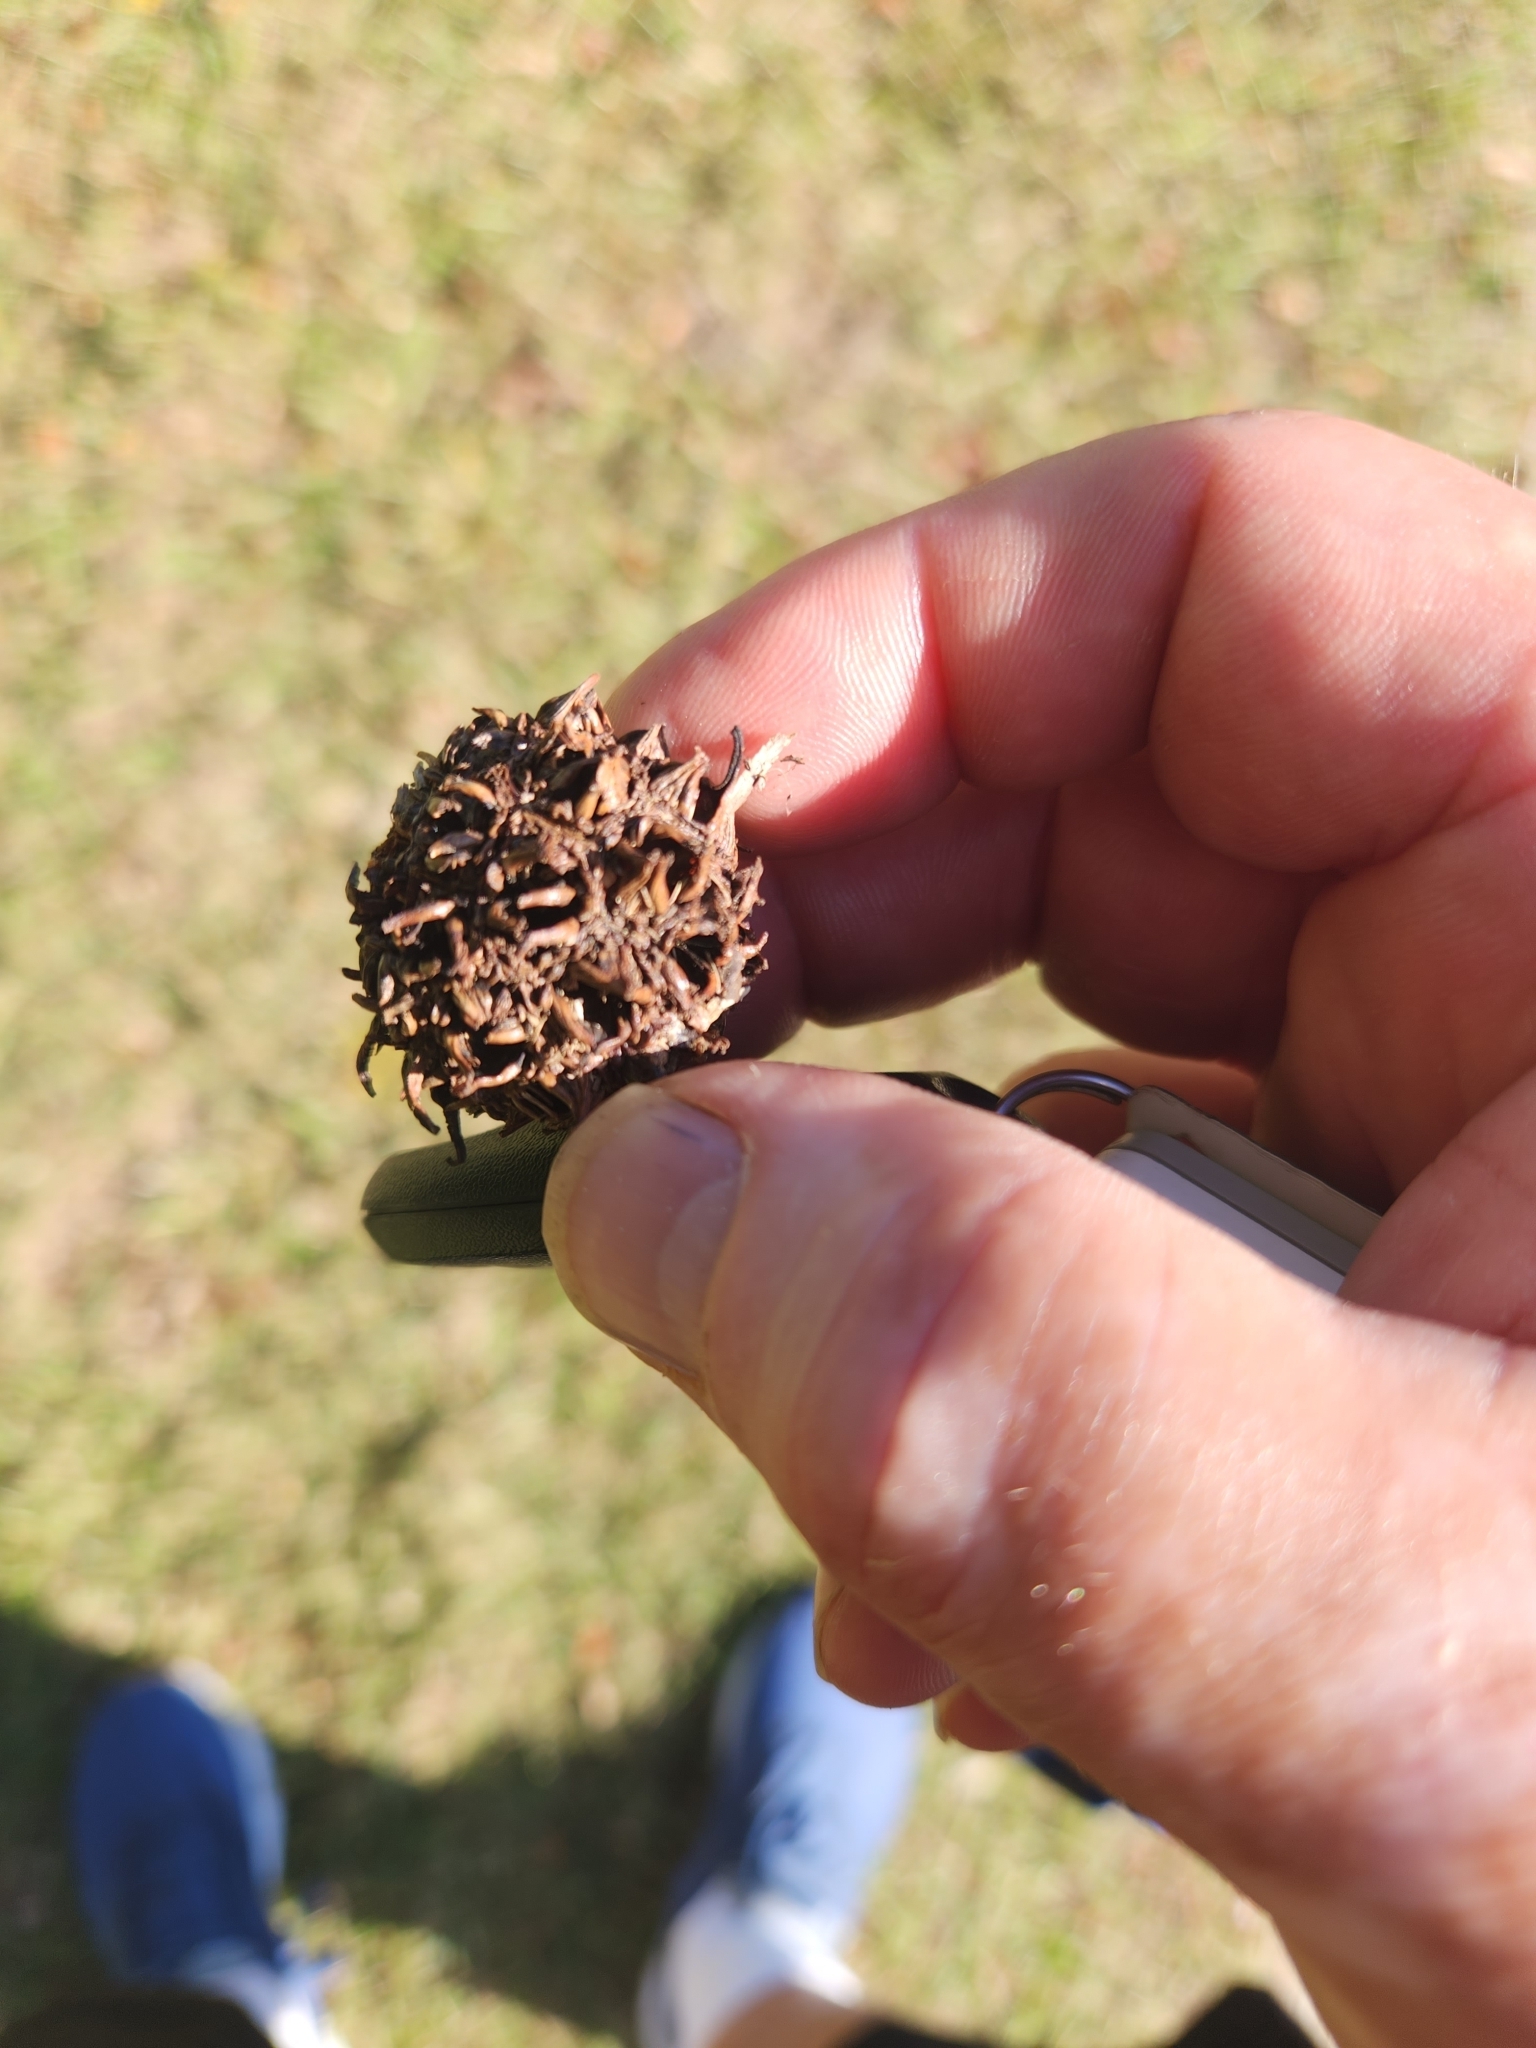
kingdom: Plantae
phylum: Tracheophyta
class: Magnoliopsida
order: Saxifragales
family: Altingiaceae
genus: Liquidambar
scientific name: Liquidambar styraciflua
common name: Sweet gum
